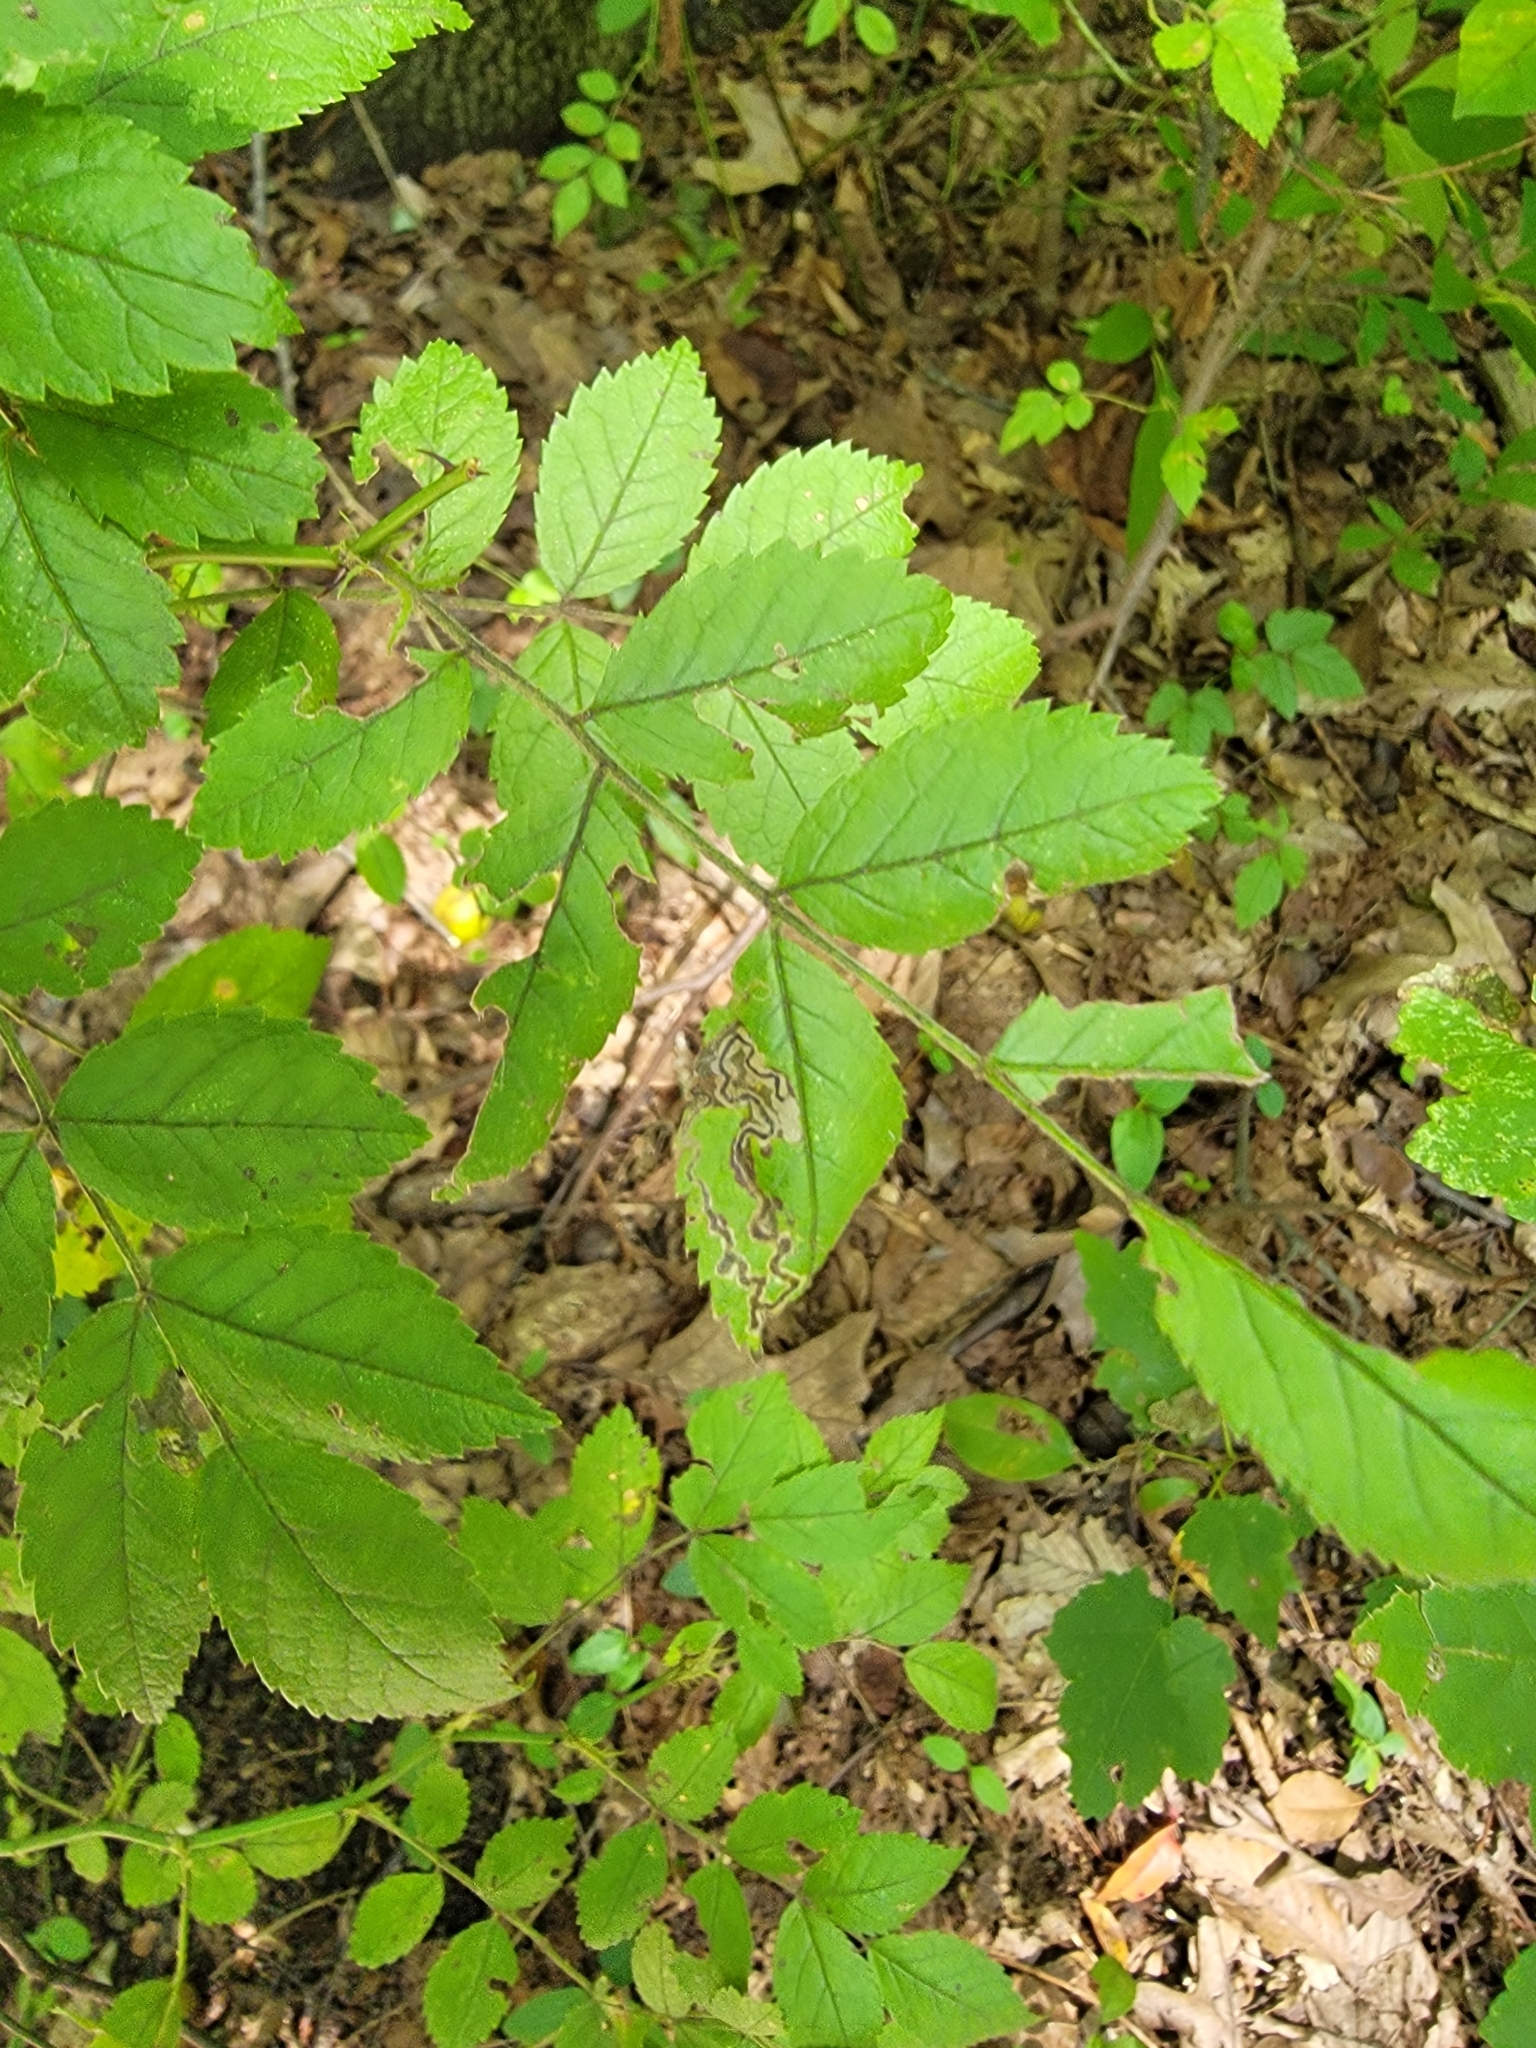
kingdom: Plantae
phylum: Tracheophyta
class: Magnoliopsida
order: Rosales
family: Rosaceae
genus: Rosa
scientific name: Rosa multiflora
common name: Multiflora rose
